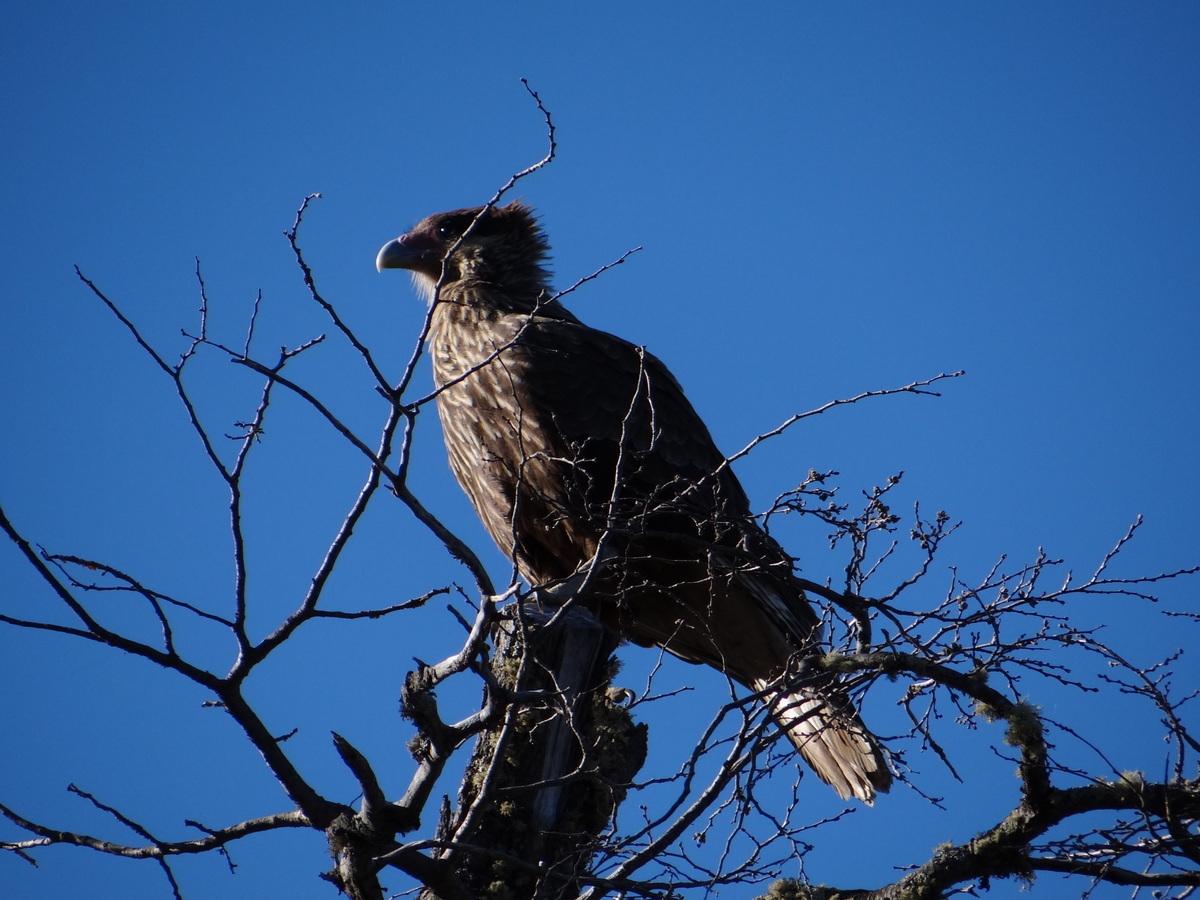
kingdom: Animalia
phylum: Chordata
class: Aves
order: Falconiformes
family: Falconidae
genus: Caracara
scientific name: Caracara plancus
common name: Southern caracara
